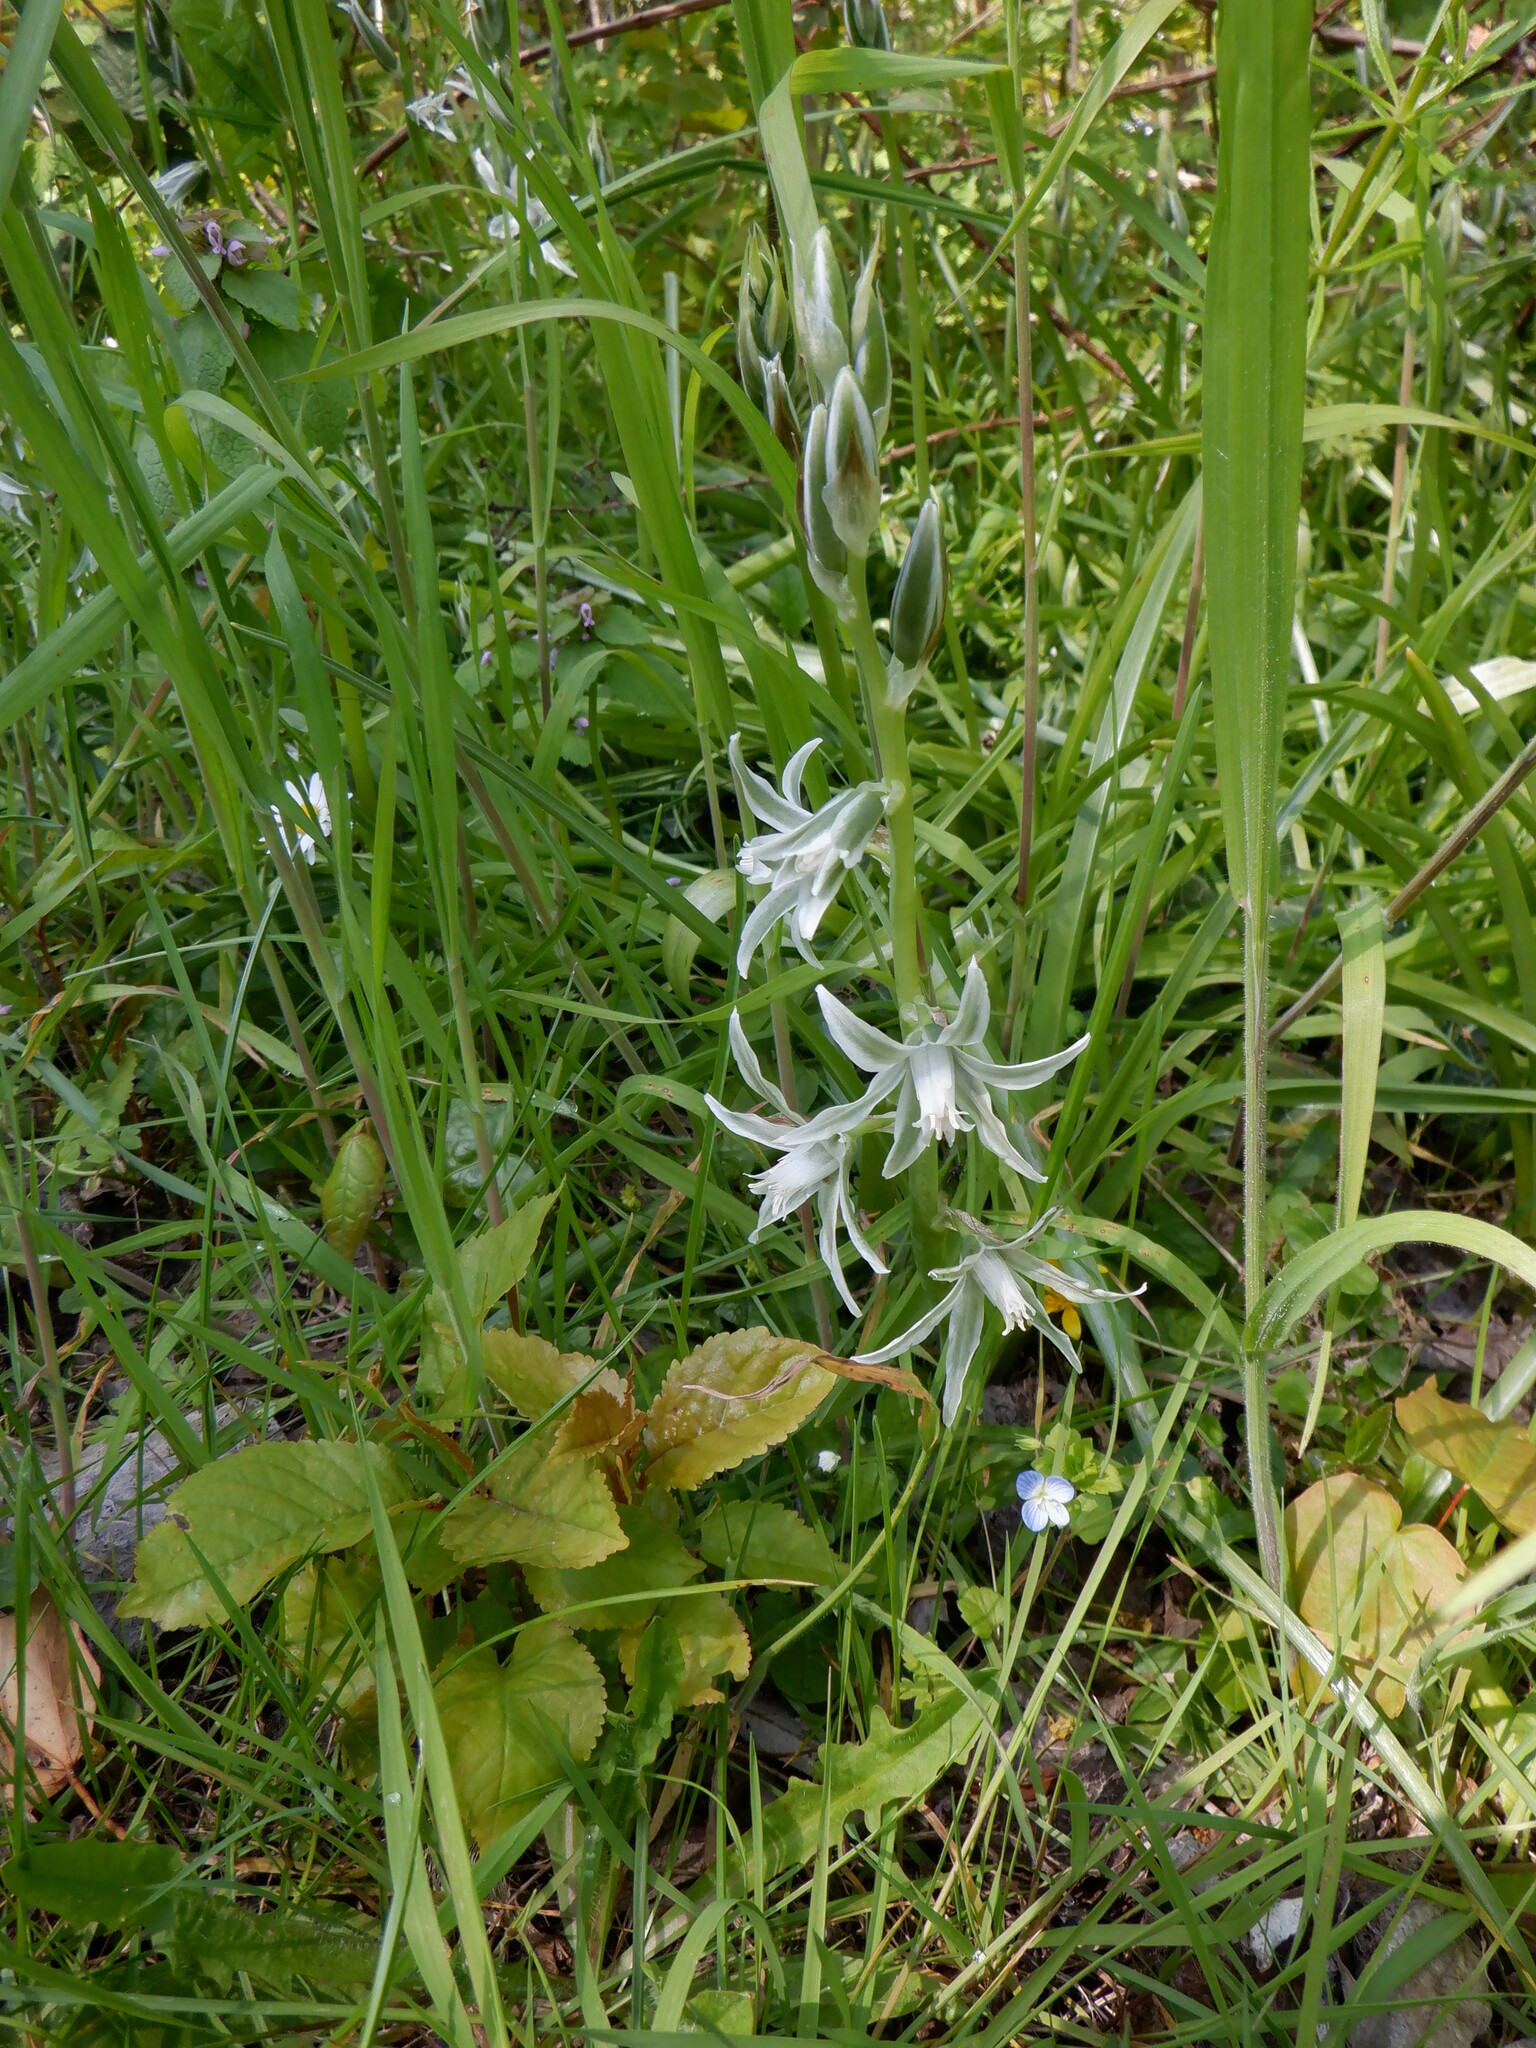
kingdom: Plantae
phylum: Tracheophyta
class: Liliopsida
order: Asparagales
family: Asparagaceae
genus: Ornithogalum
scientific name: Ornithogalum nutans
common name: Drooping star-of-bethlehem
